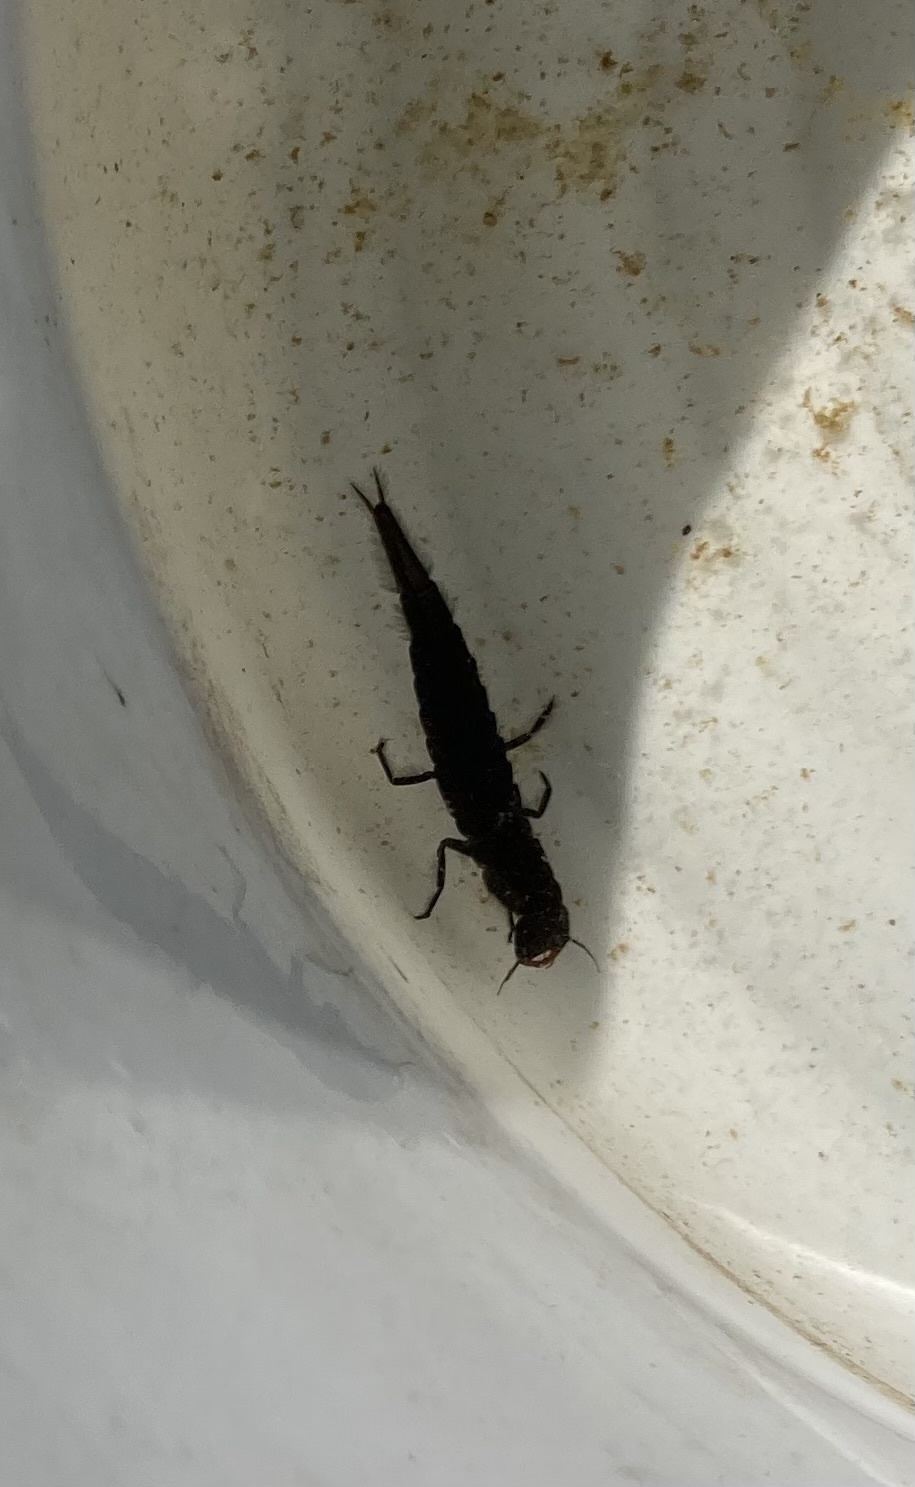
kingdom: Animalia
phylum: Arthropoda
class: Insecta
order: Coleoptera
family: Dytiscidae
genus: Dytiscus
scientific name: Dytiscus
